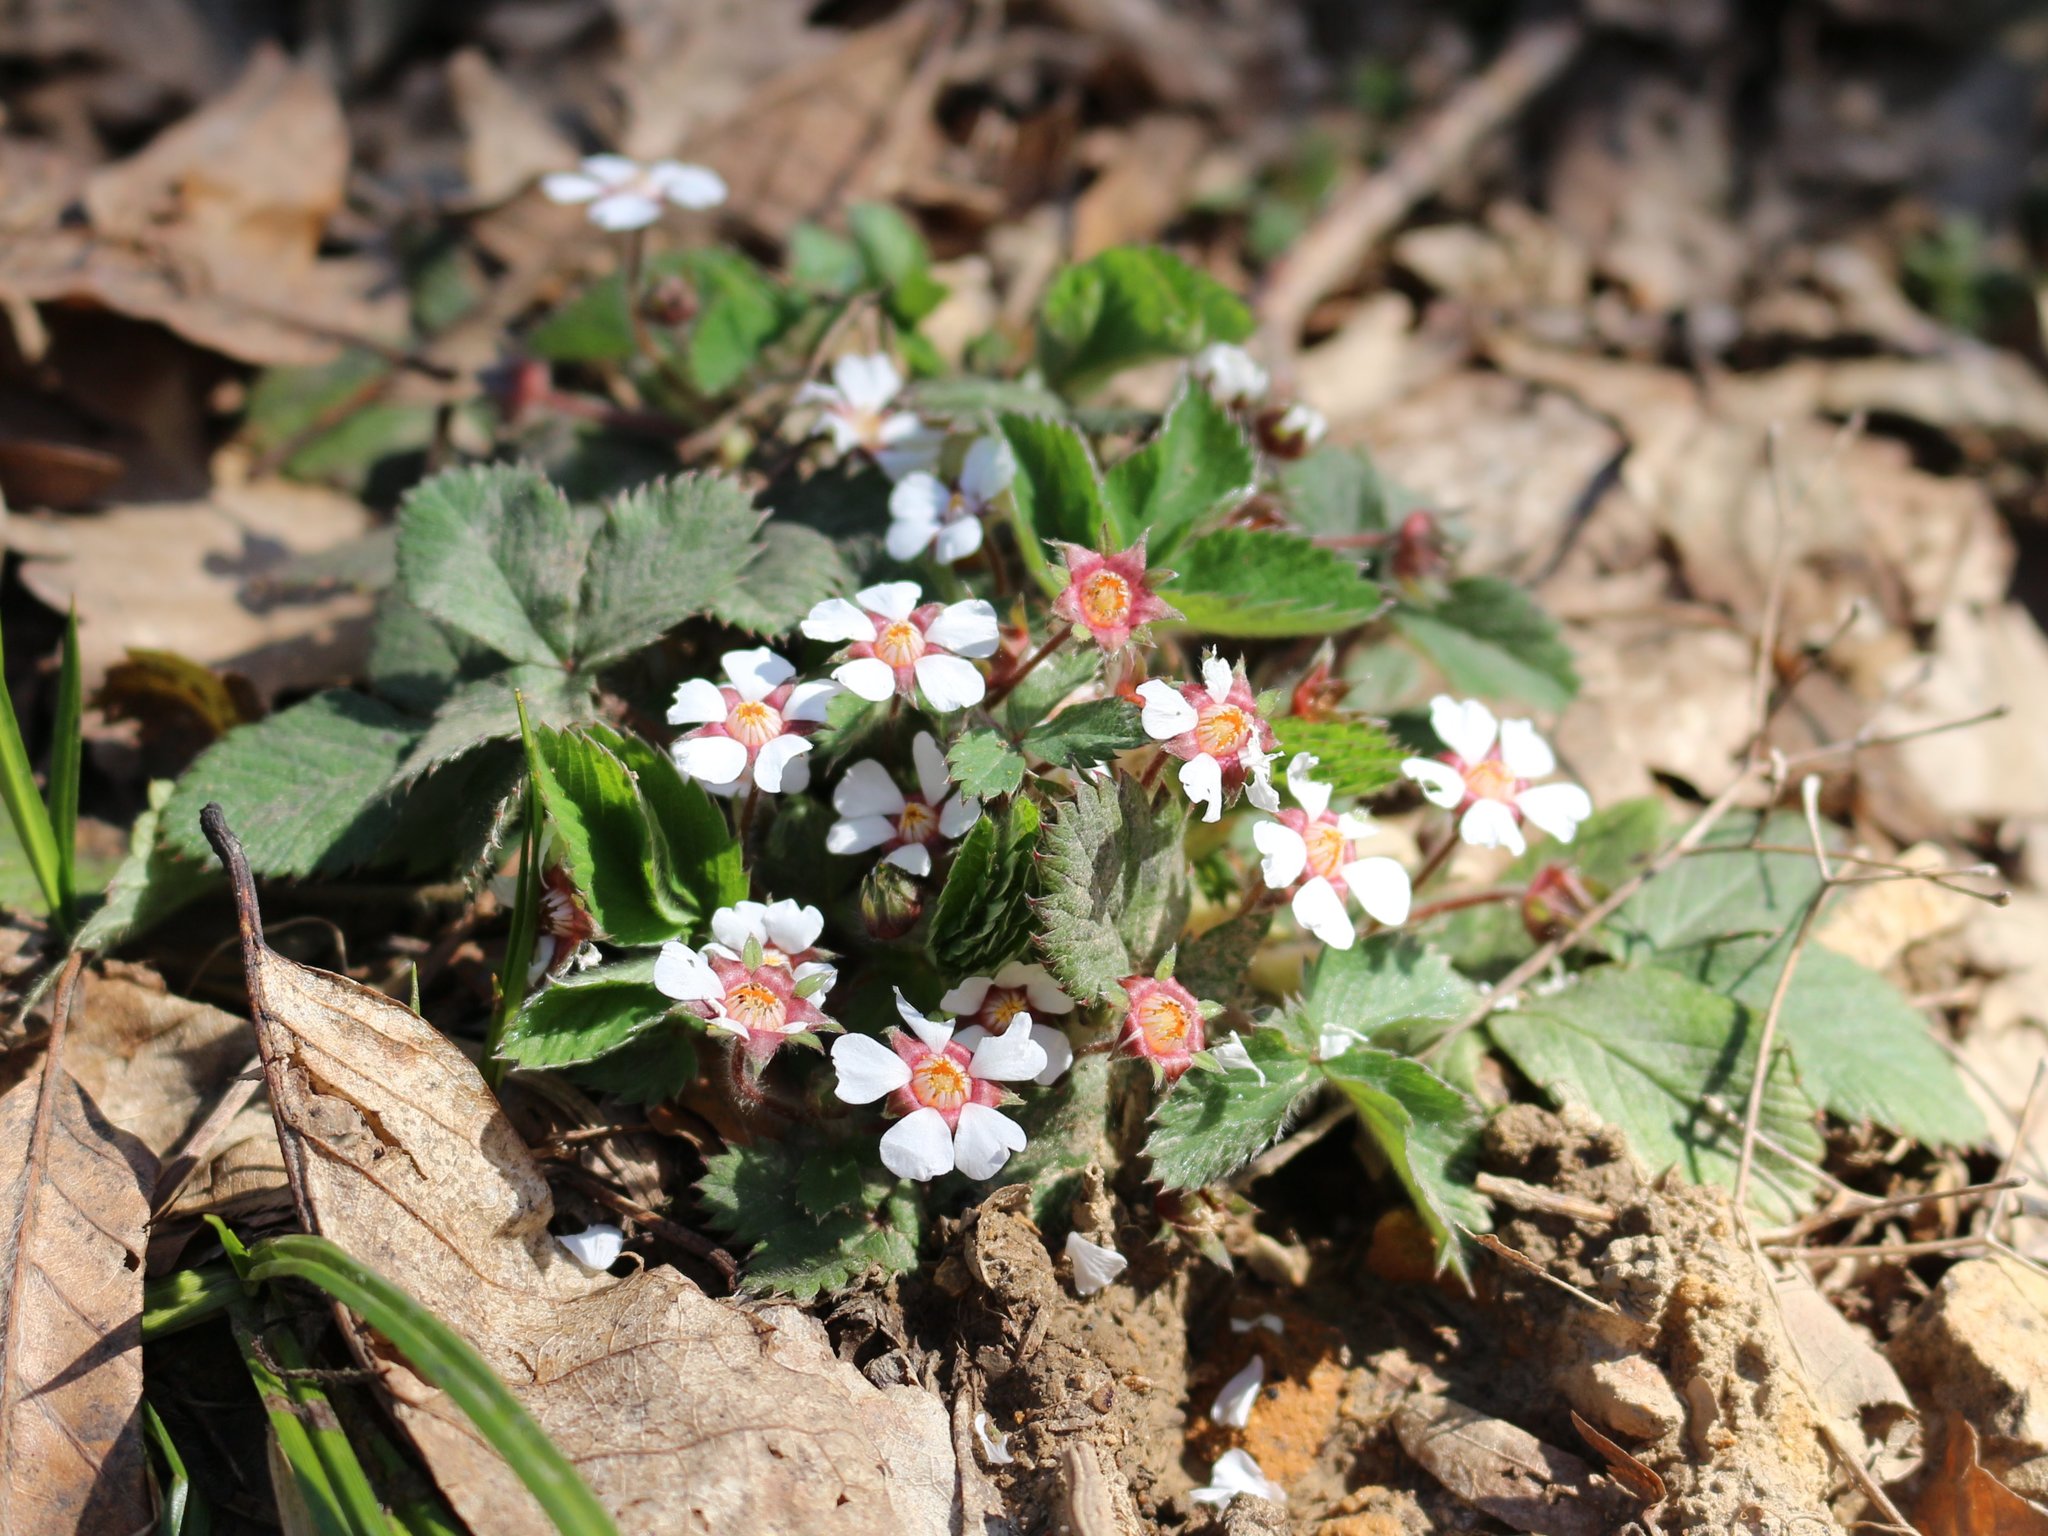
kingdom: Plantae
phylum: Tracheophyta
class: Magnoliopsida
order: Rosales
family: Rosaceae
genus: Potentilla
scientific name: Potentilla micrantha
